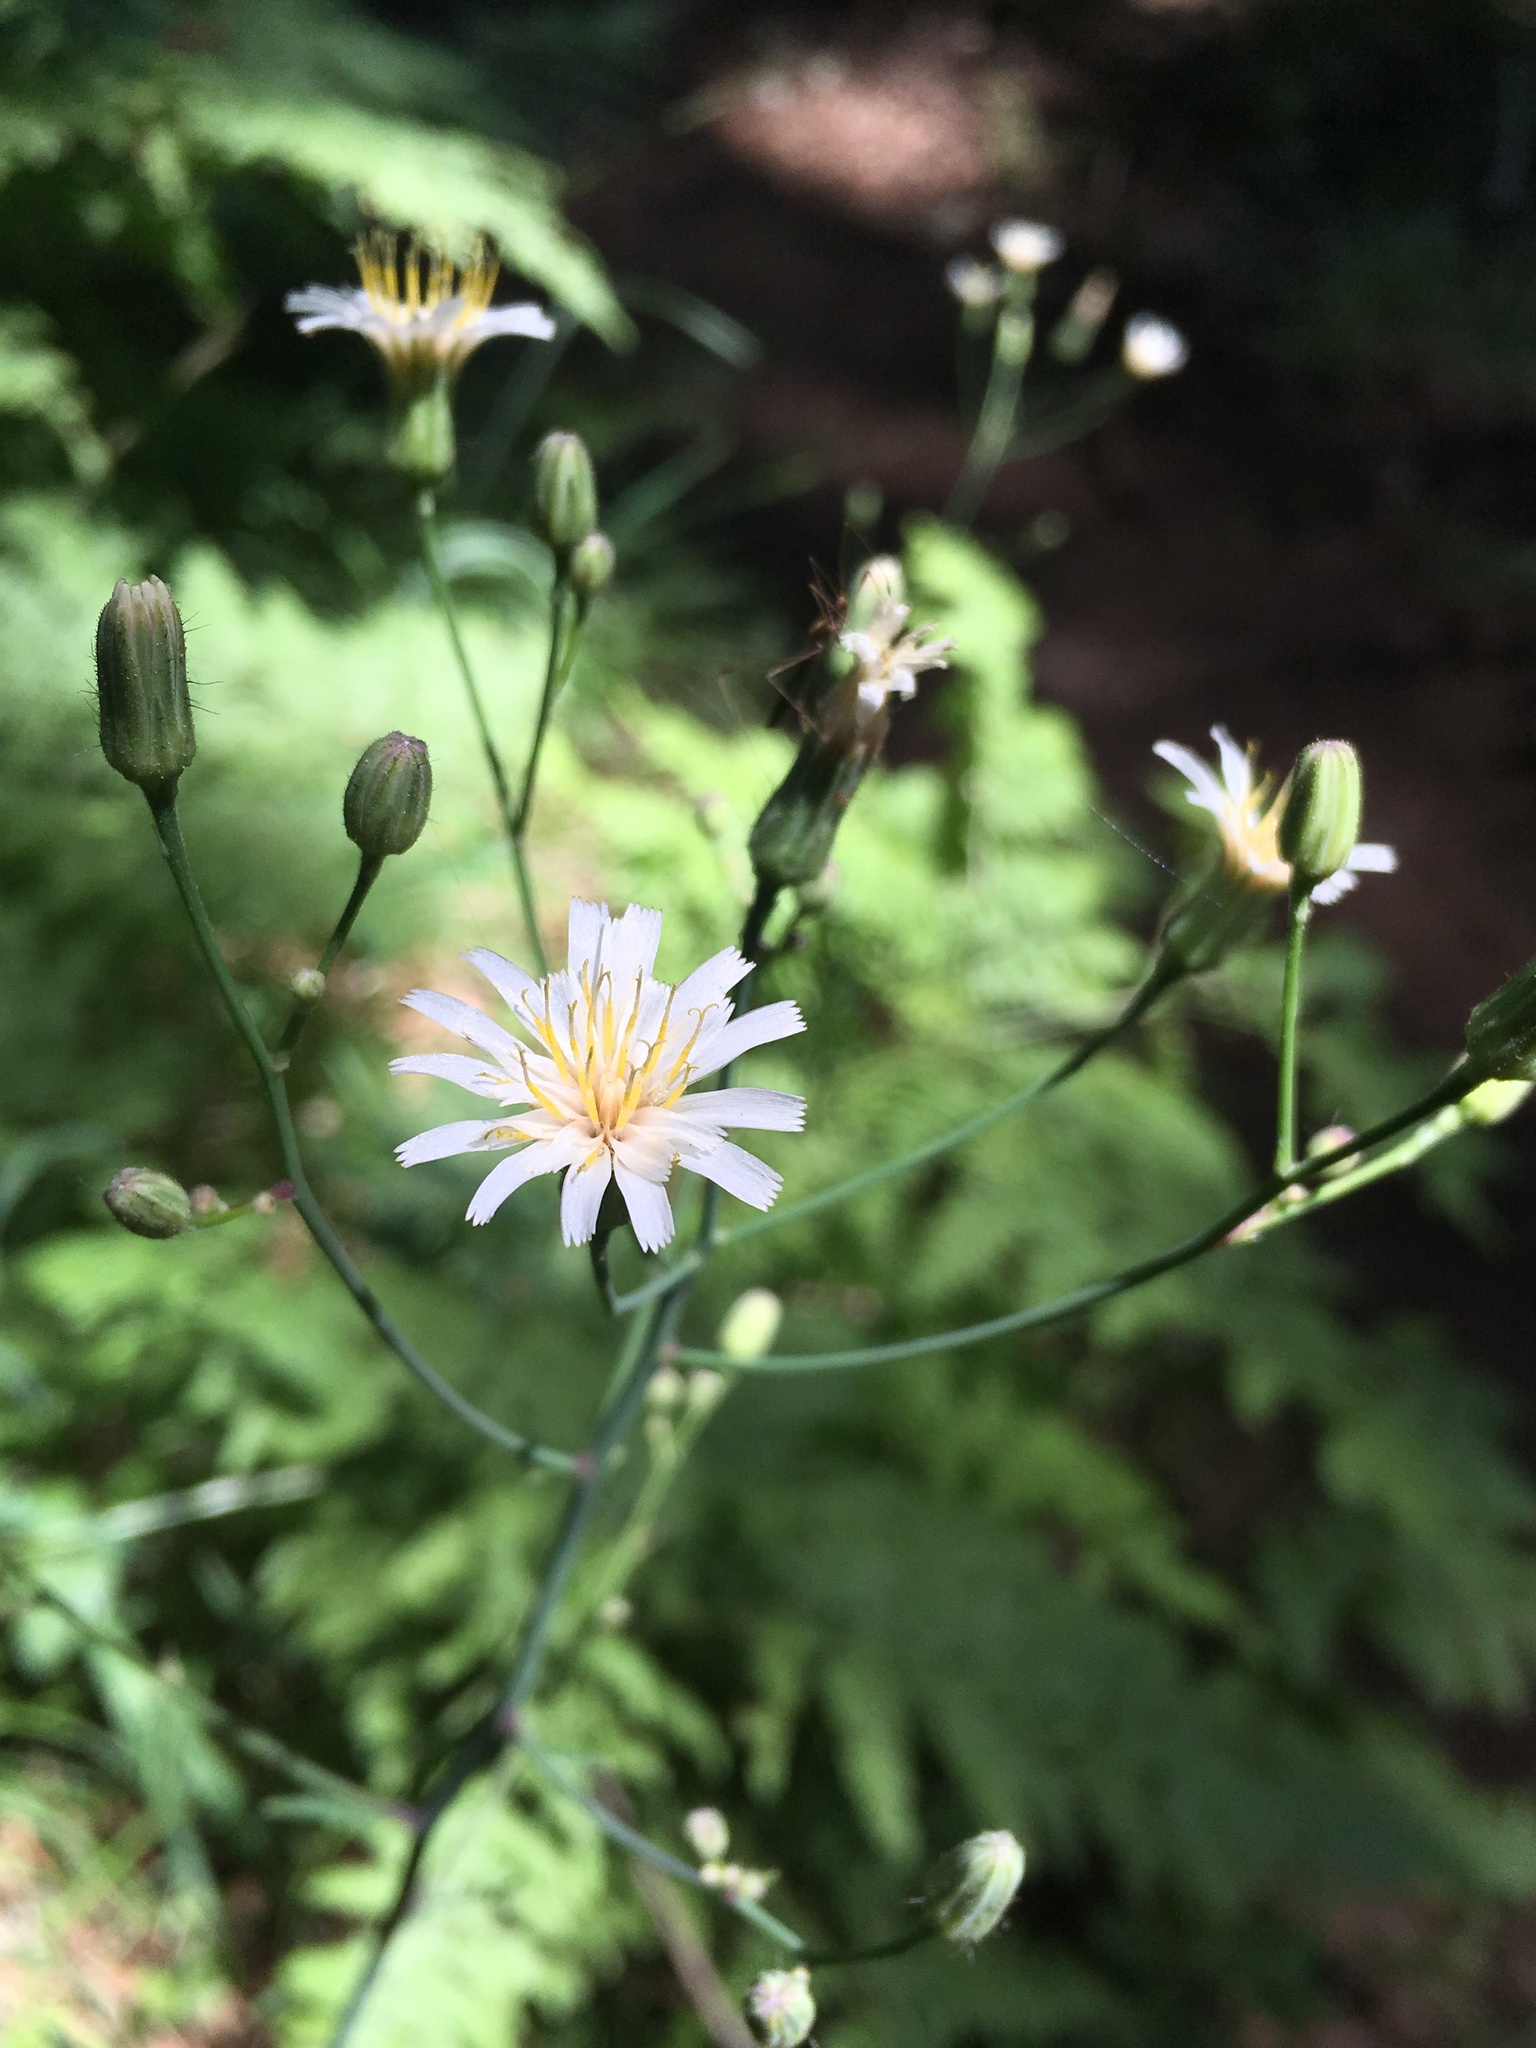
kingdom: Plantae
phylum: Tracheophyta
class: Magnoliopsida
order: Asterales
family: Asteraceae
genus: Hieracium
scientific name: Hieracium albiflorum
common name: White hawkweed
